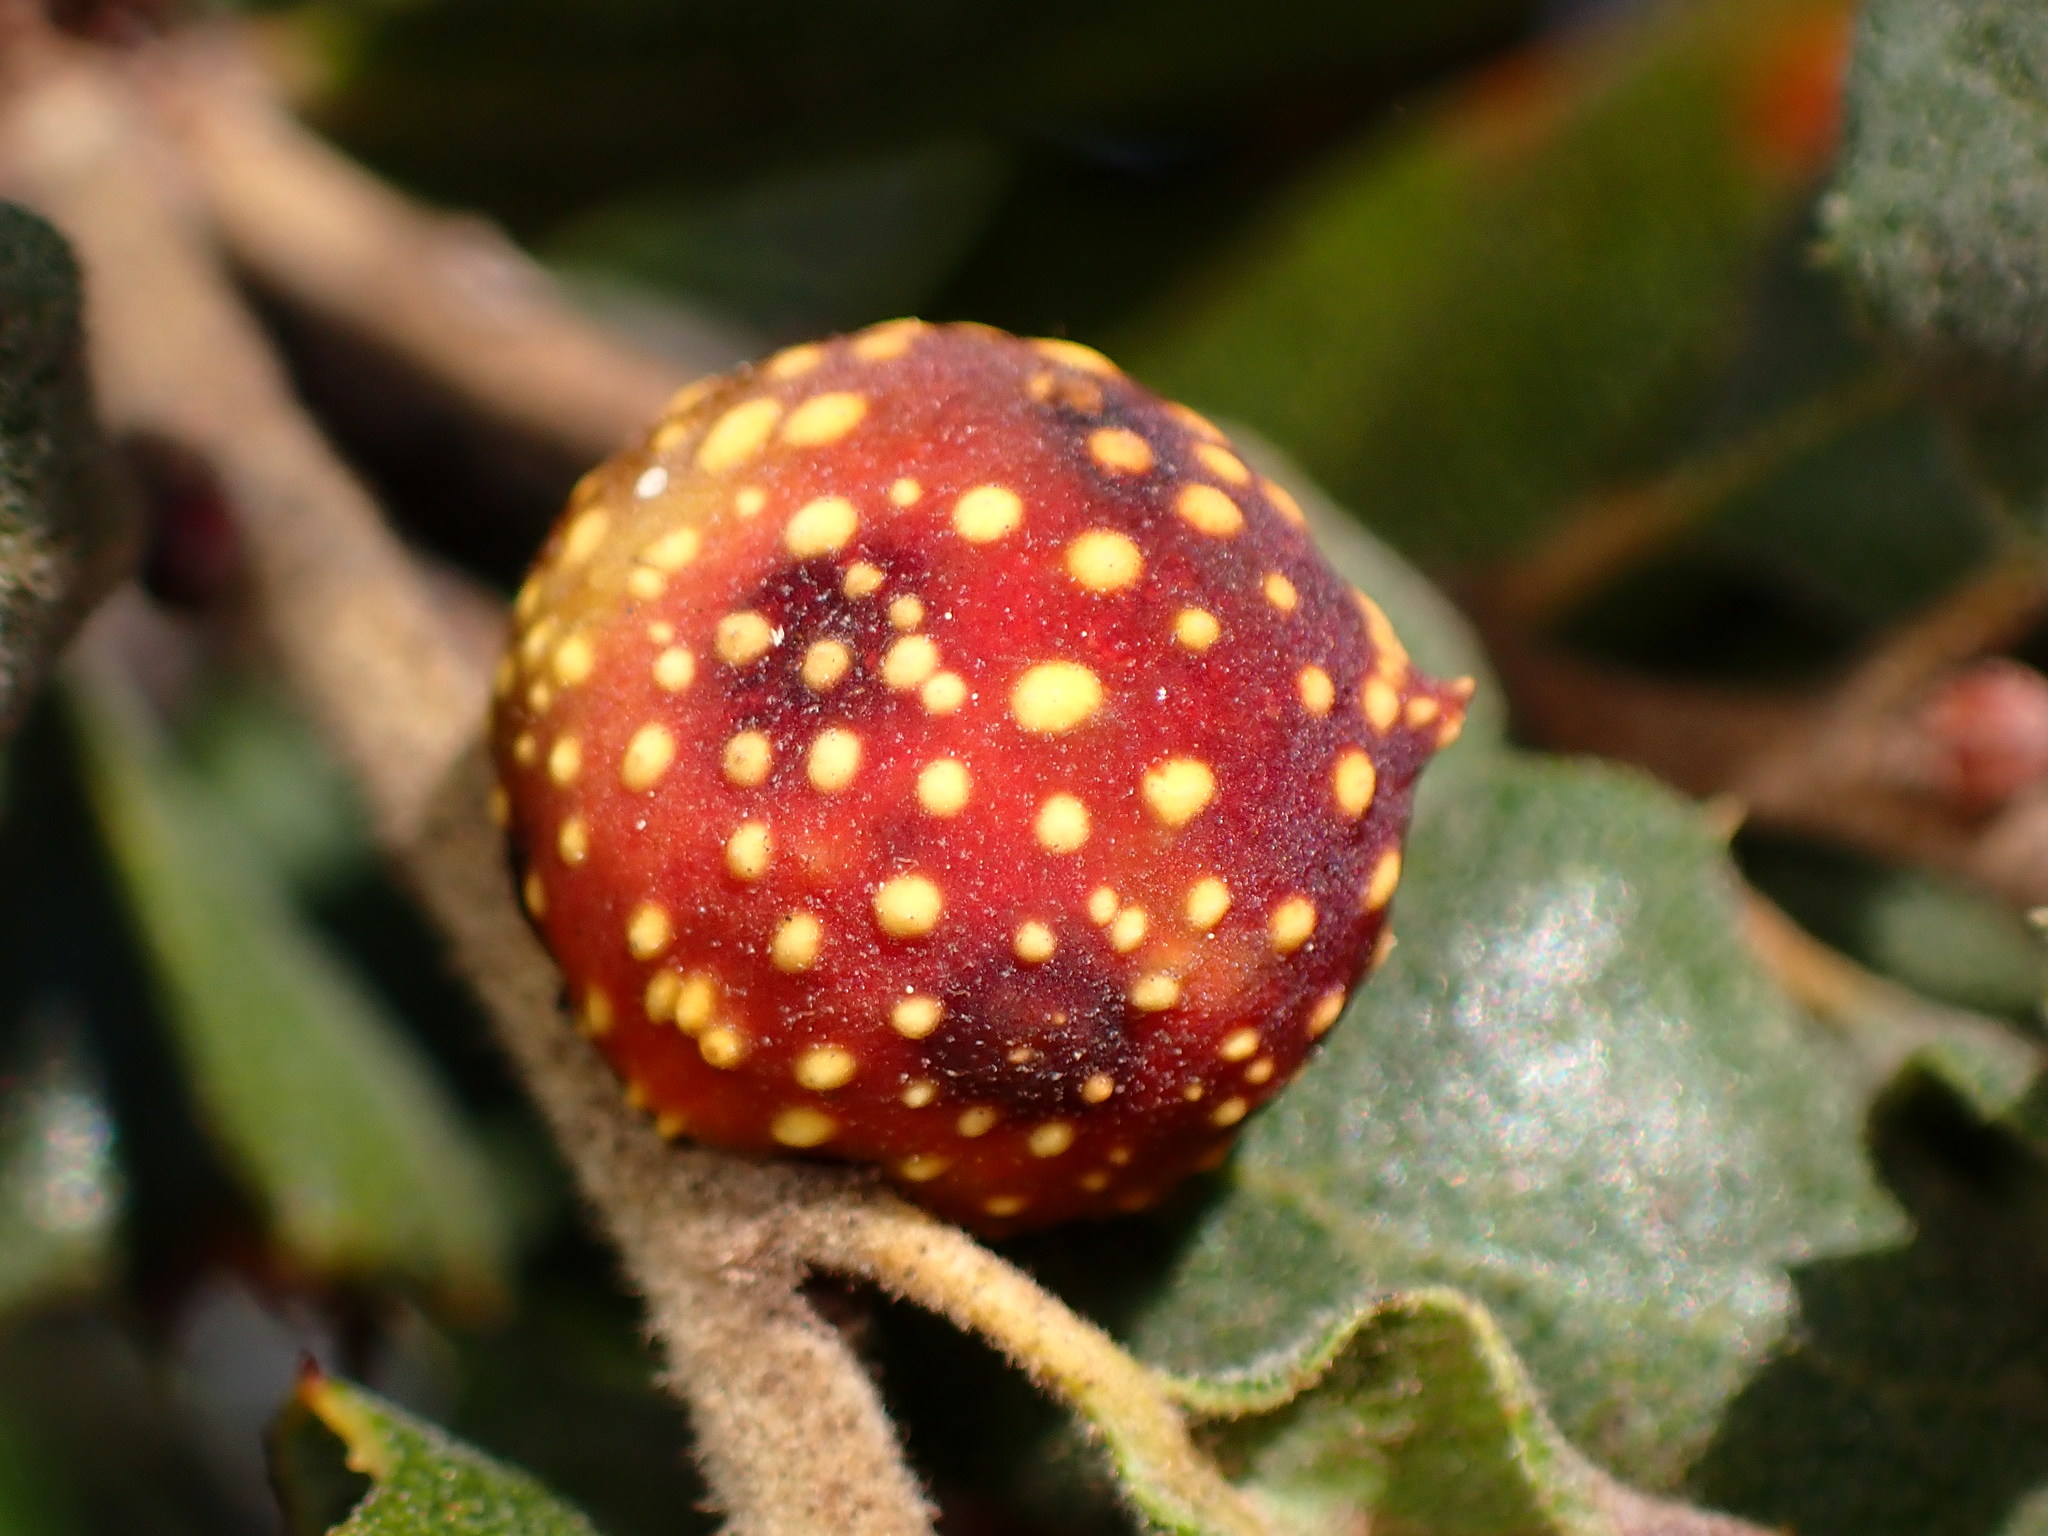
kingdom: Animalia
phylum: Arthropoda
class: Insecta
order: Hymenoptera
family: Cynipidae
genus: Burnettweldia
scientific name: Burnettweldia
